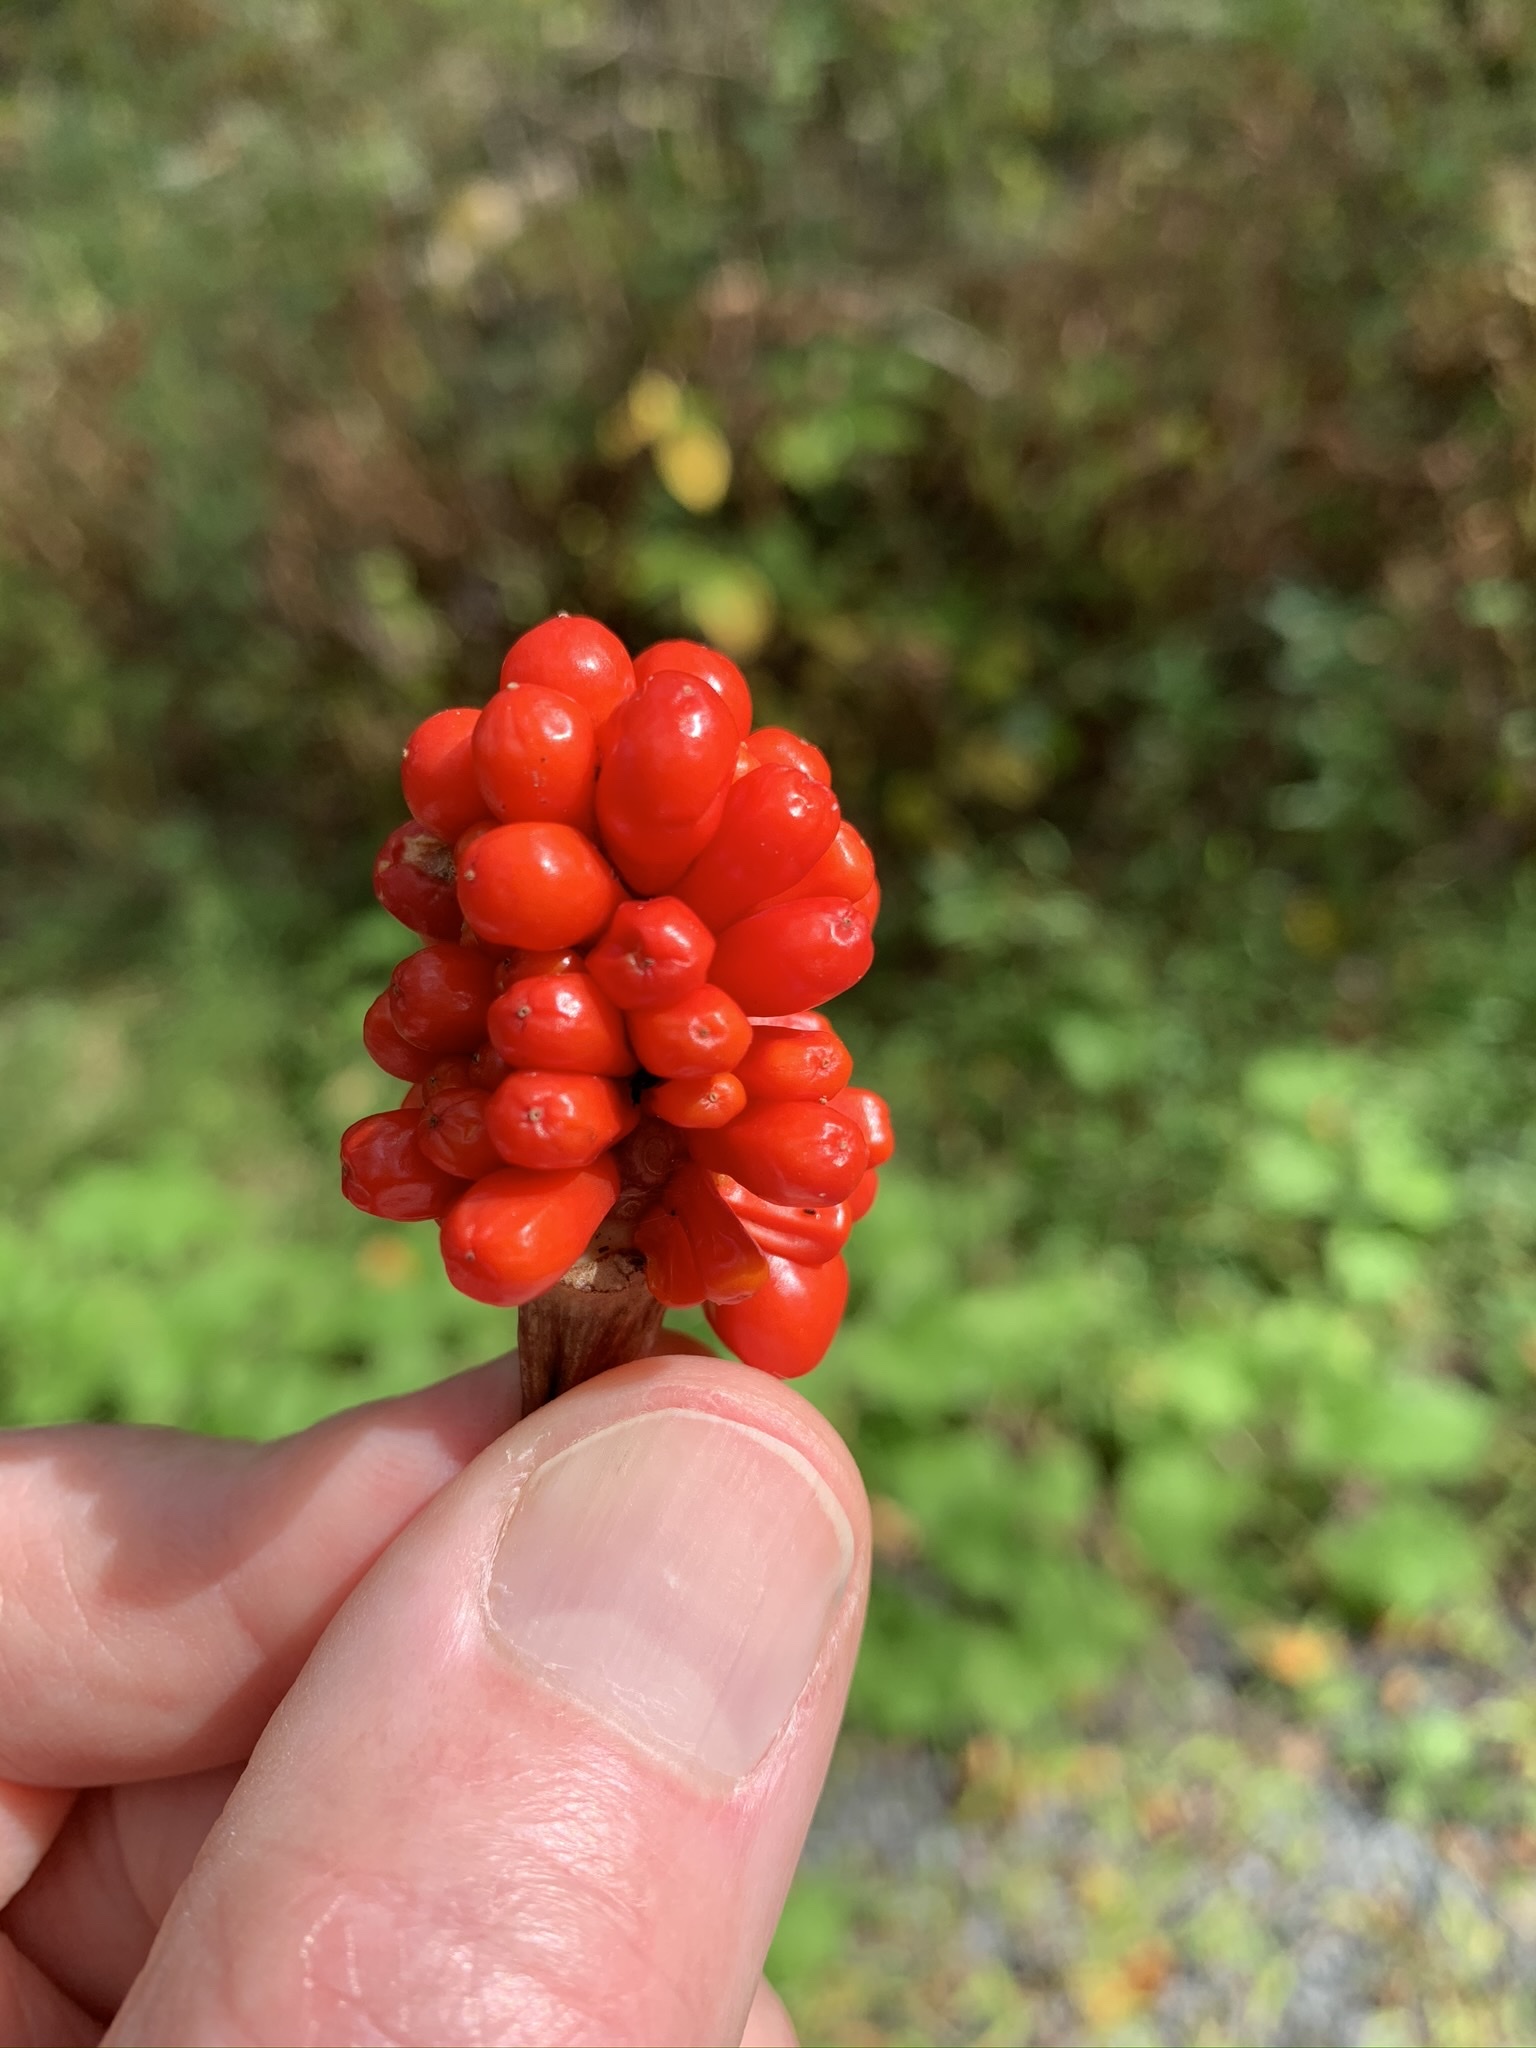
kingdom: Plantae
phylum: Tracheophyta
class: Liliopsida
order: Alismatales
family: Araceae
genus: Arisaema
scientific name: Arisaema triphyllum
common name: Jack-in-the-pulpit
